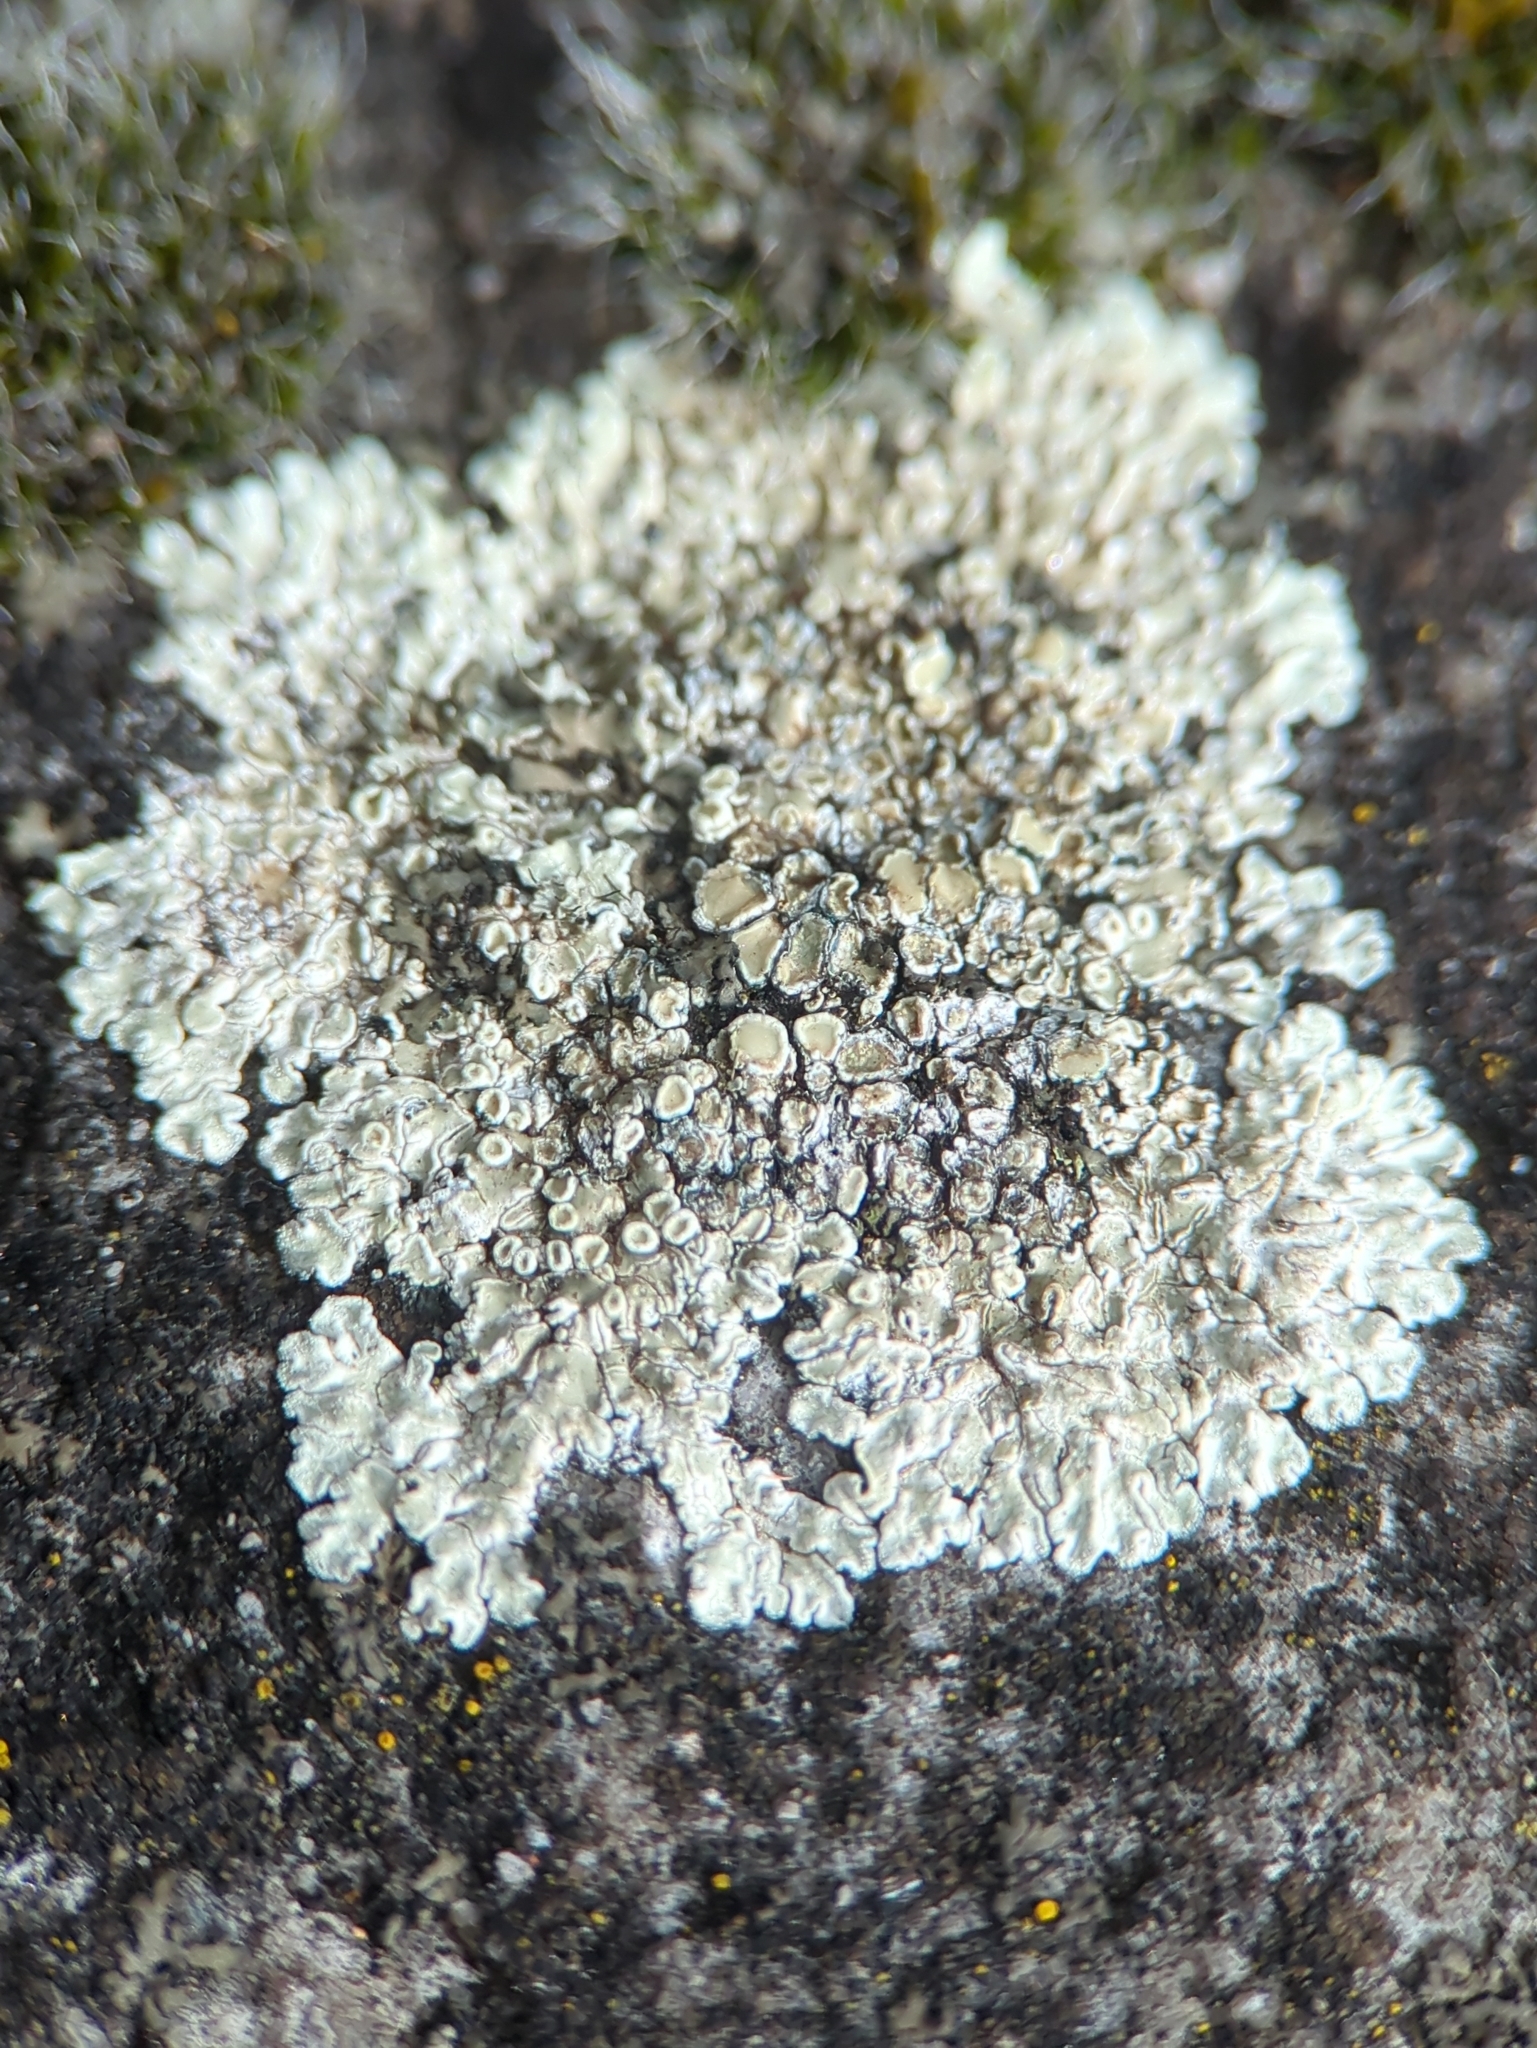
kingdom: Fungi
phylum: Ascomycota
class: Lecanoromycetes
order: Lecanorales
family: Lecanoraceae
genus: Protoparmeliopsis
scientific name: Protoparmeliopsis muralis
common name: Stonewall rim lichen
